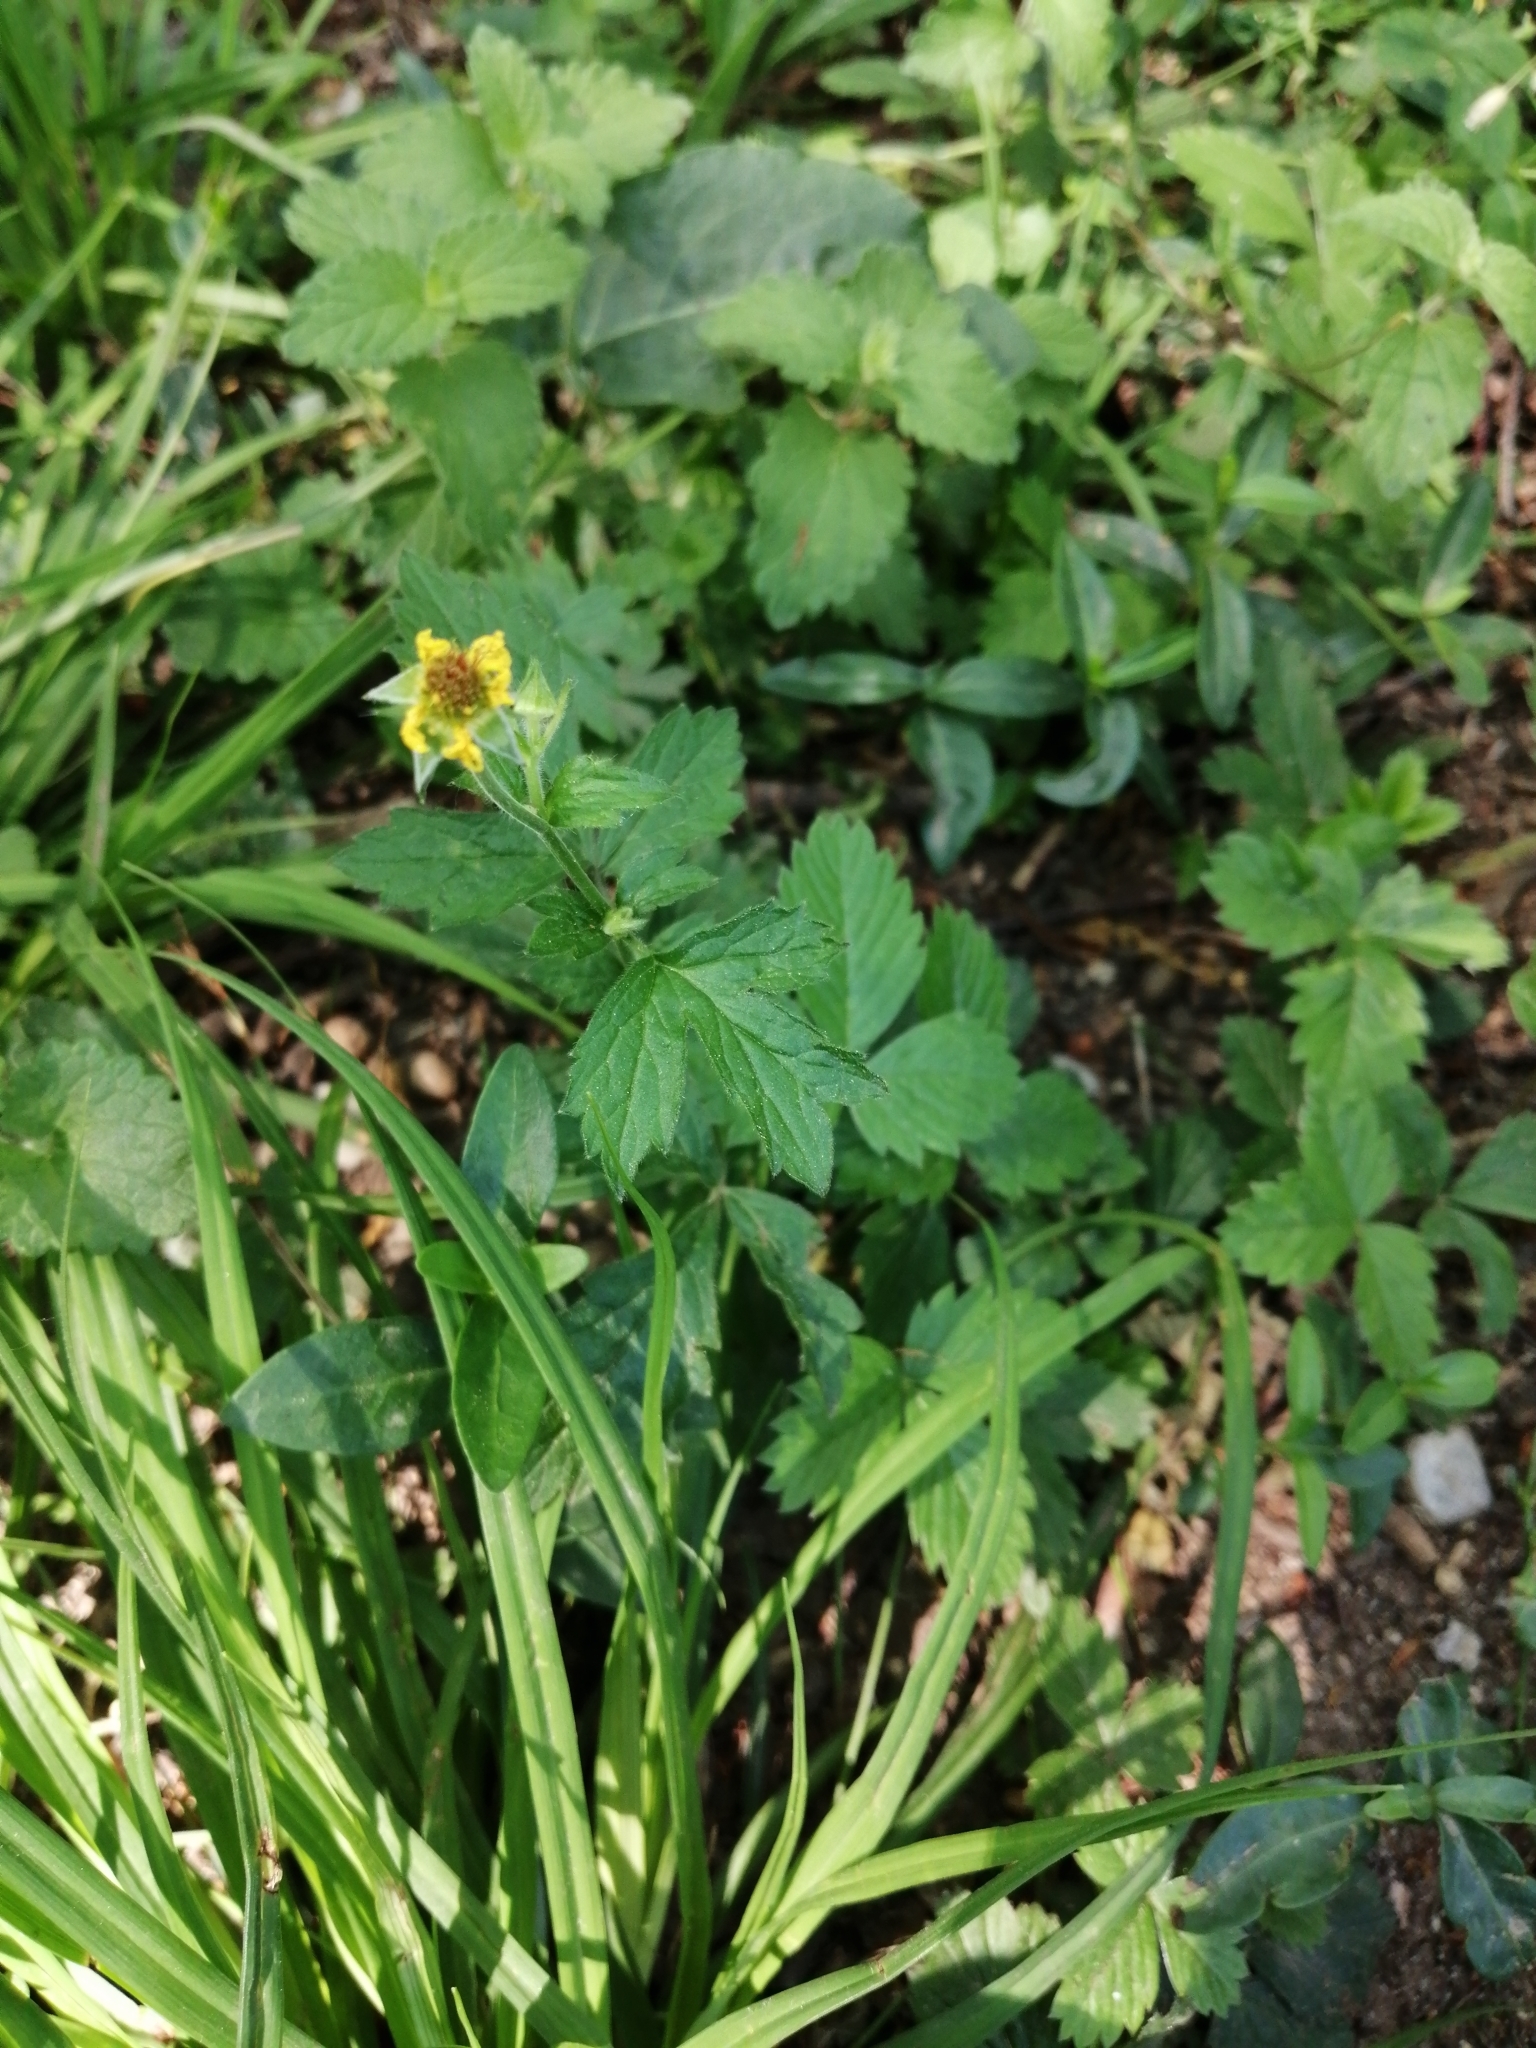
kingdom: Plantae
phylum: Tracheophyta
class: Magnoliopsida
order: Rosales
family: Rosaceae
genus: Geum
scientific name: Geum urbanum
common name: Wood avens
